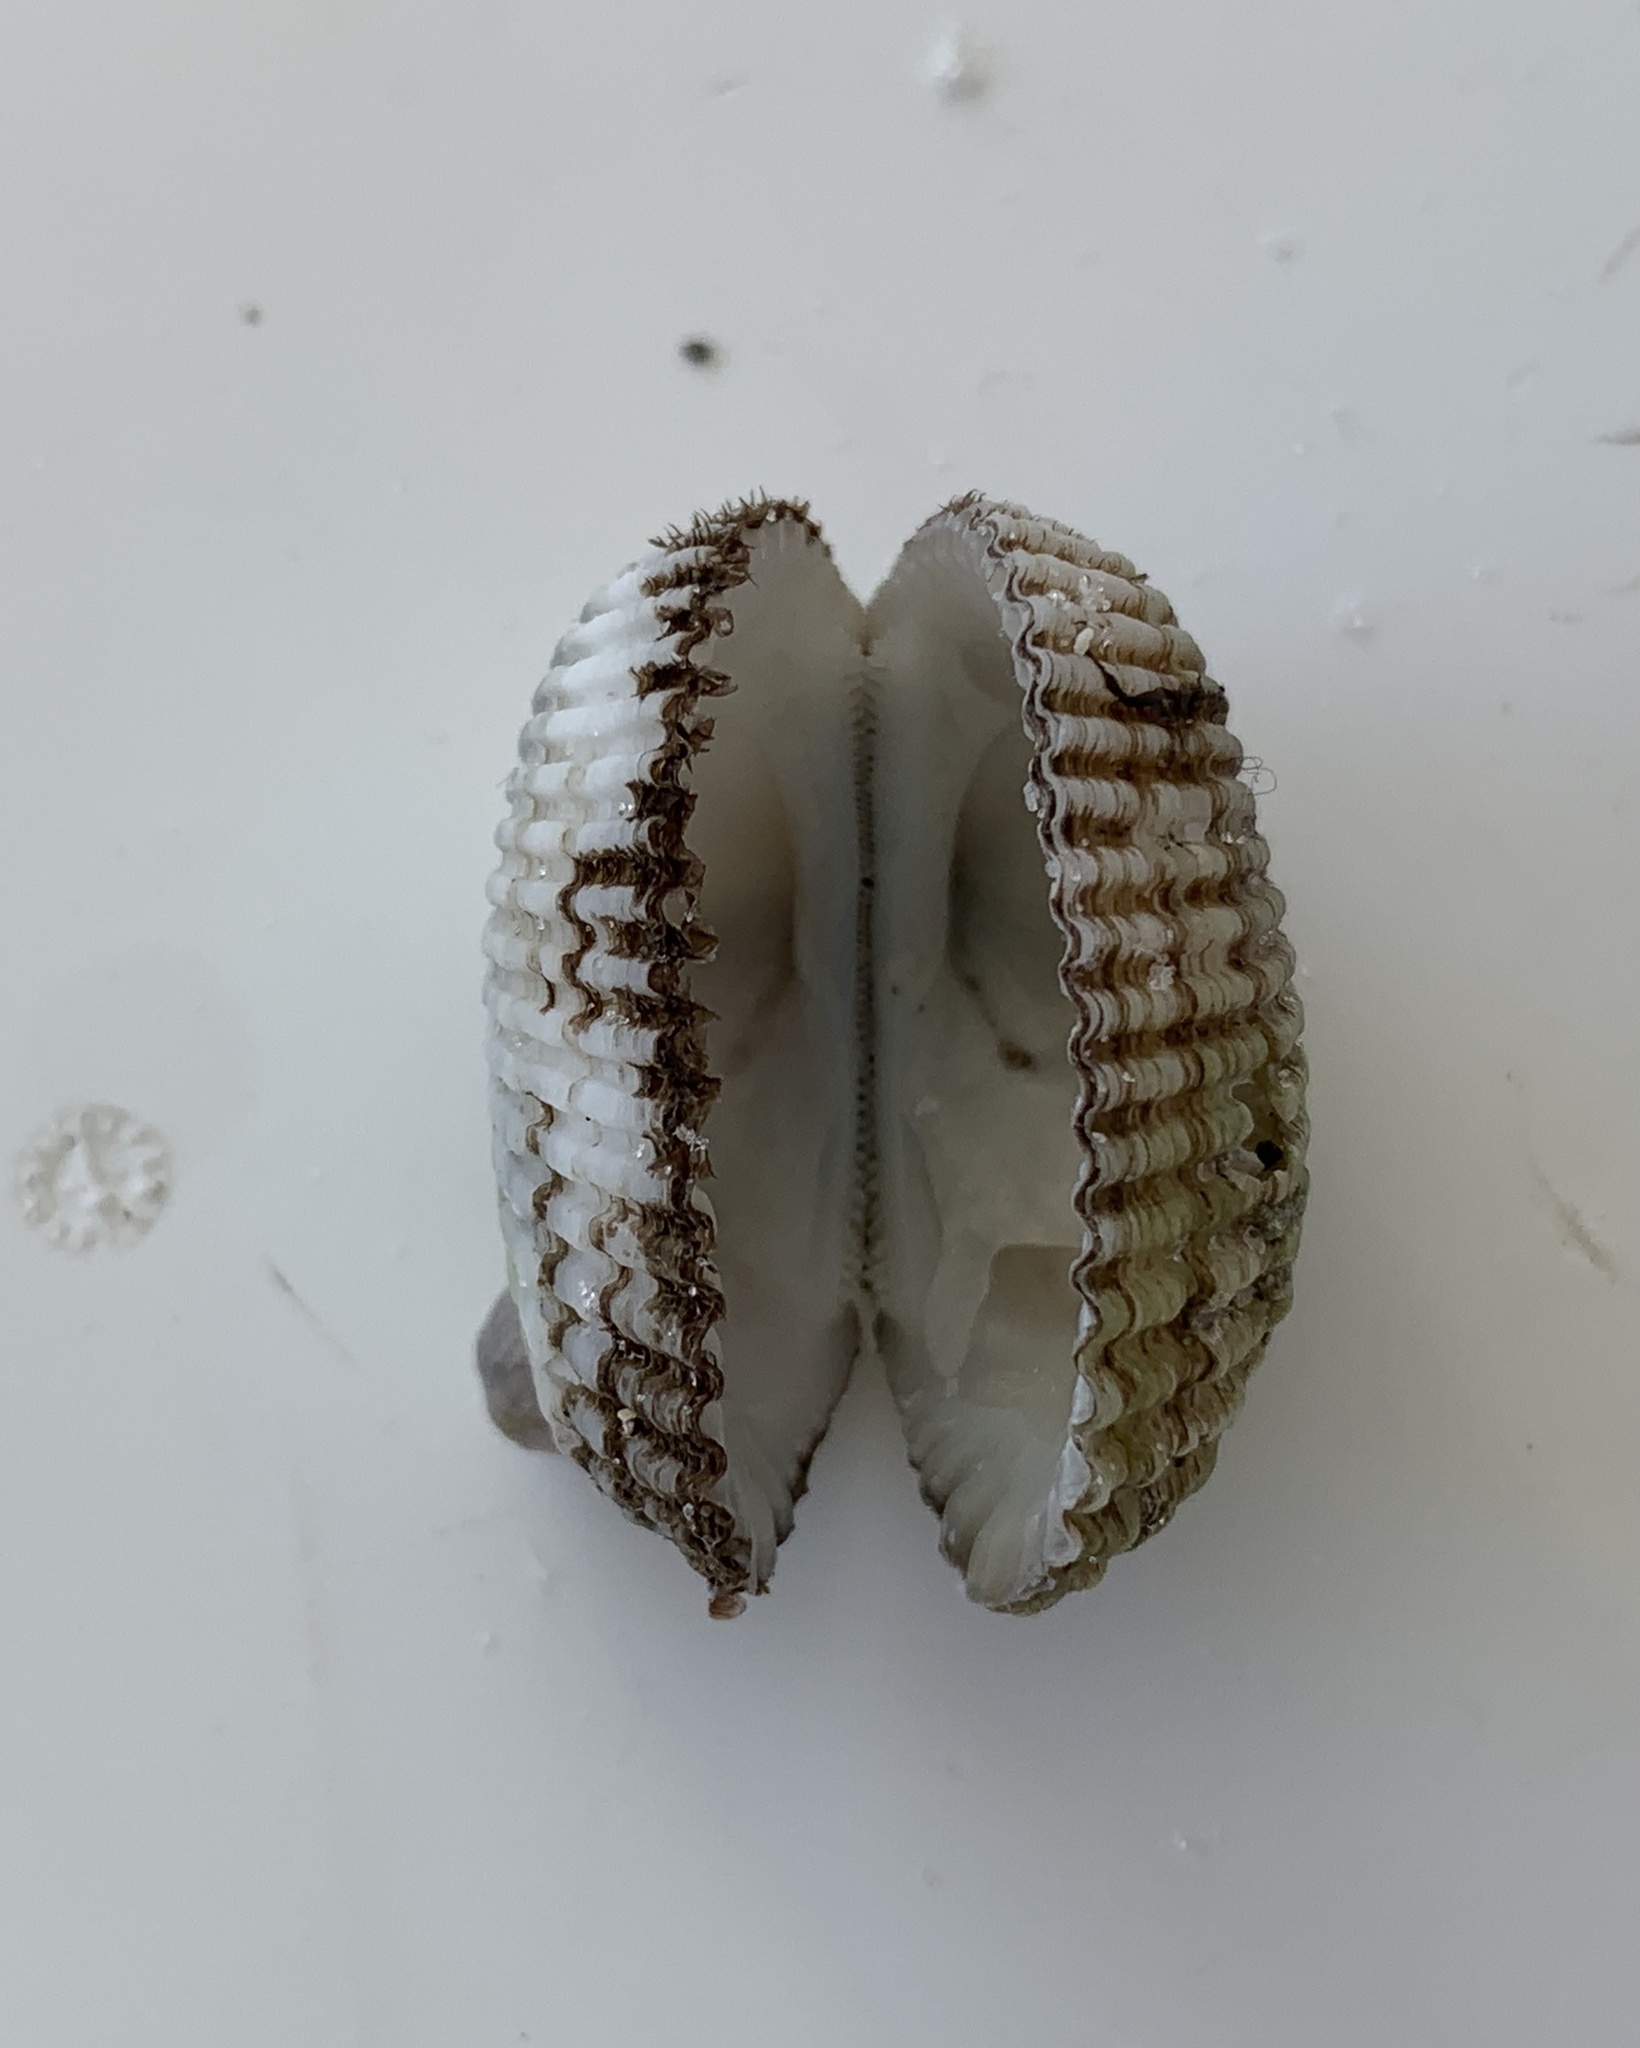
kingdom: Animalia
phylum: Mollusca
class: Bivalvia
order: Arcida
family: Arcidae
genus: Anadara
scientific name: Anadara transversa
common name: Transverse ark
